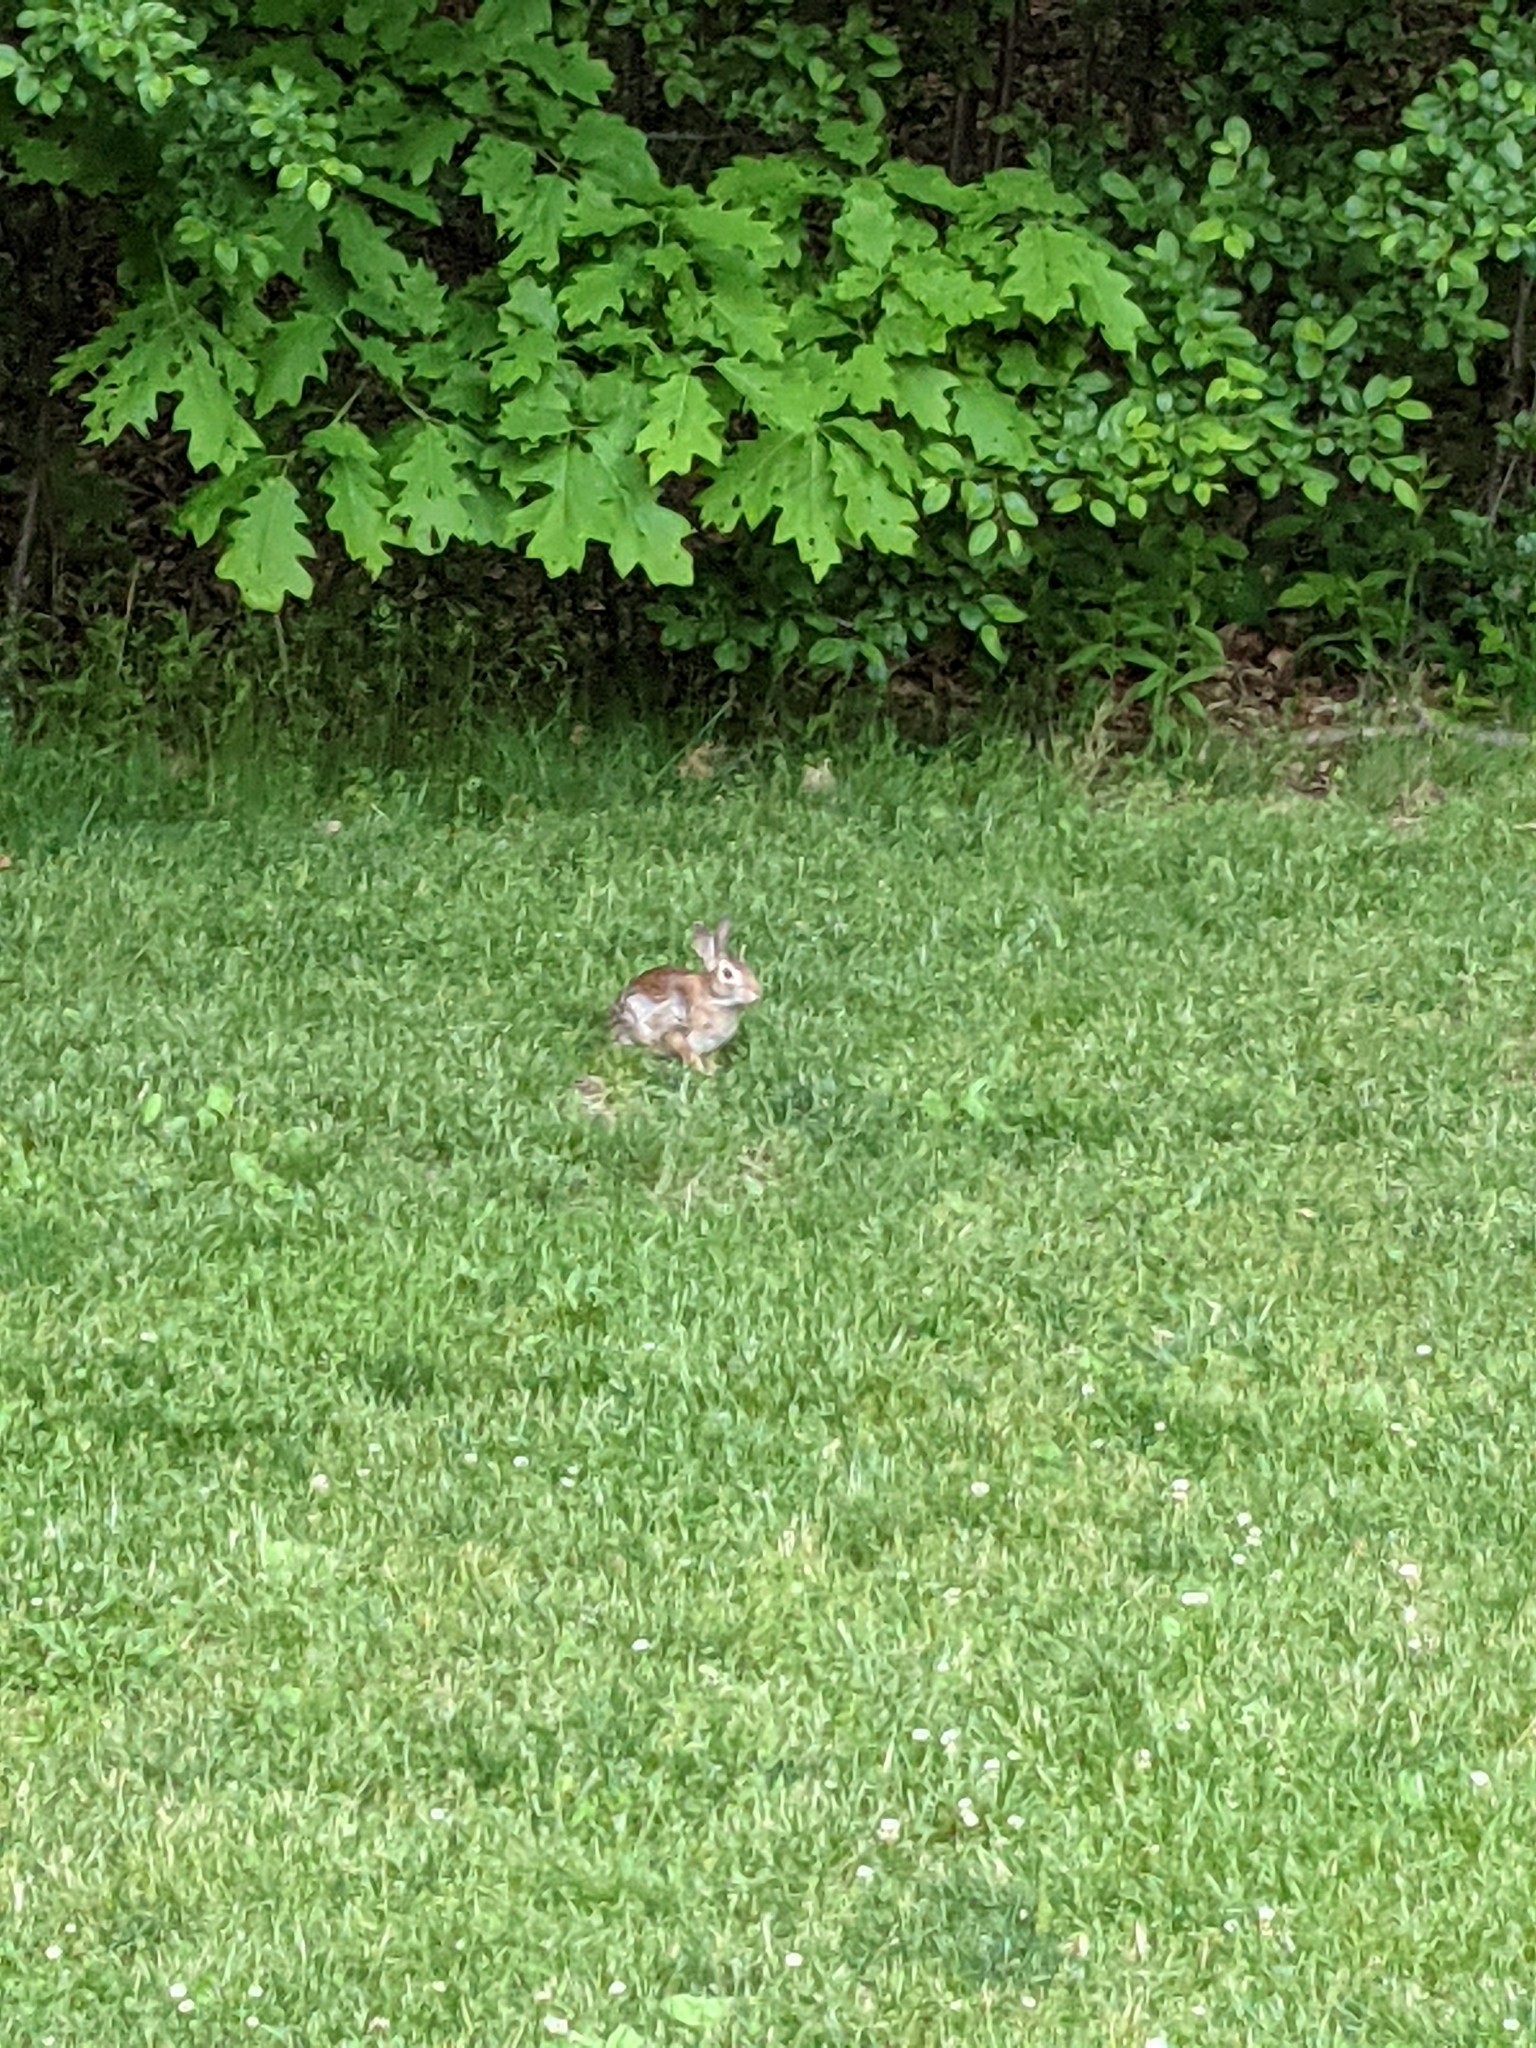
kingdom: Animalia
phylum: Chordata
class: Mammalia
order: Lagomorpha
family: Leporidae
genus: Sylvilagus
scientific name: Sylvilagus floridanus
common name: Eastern cottontail
